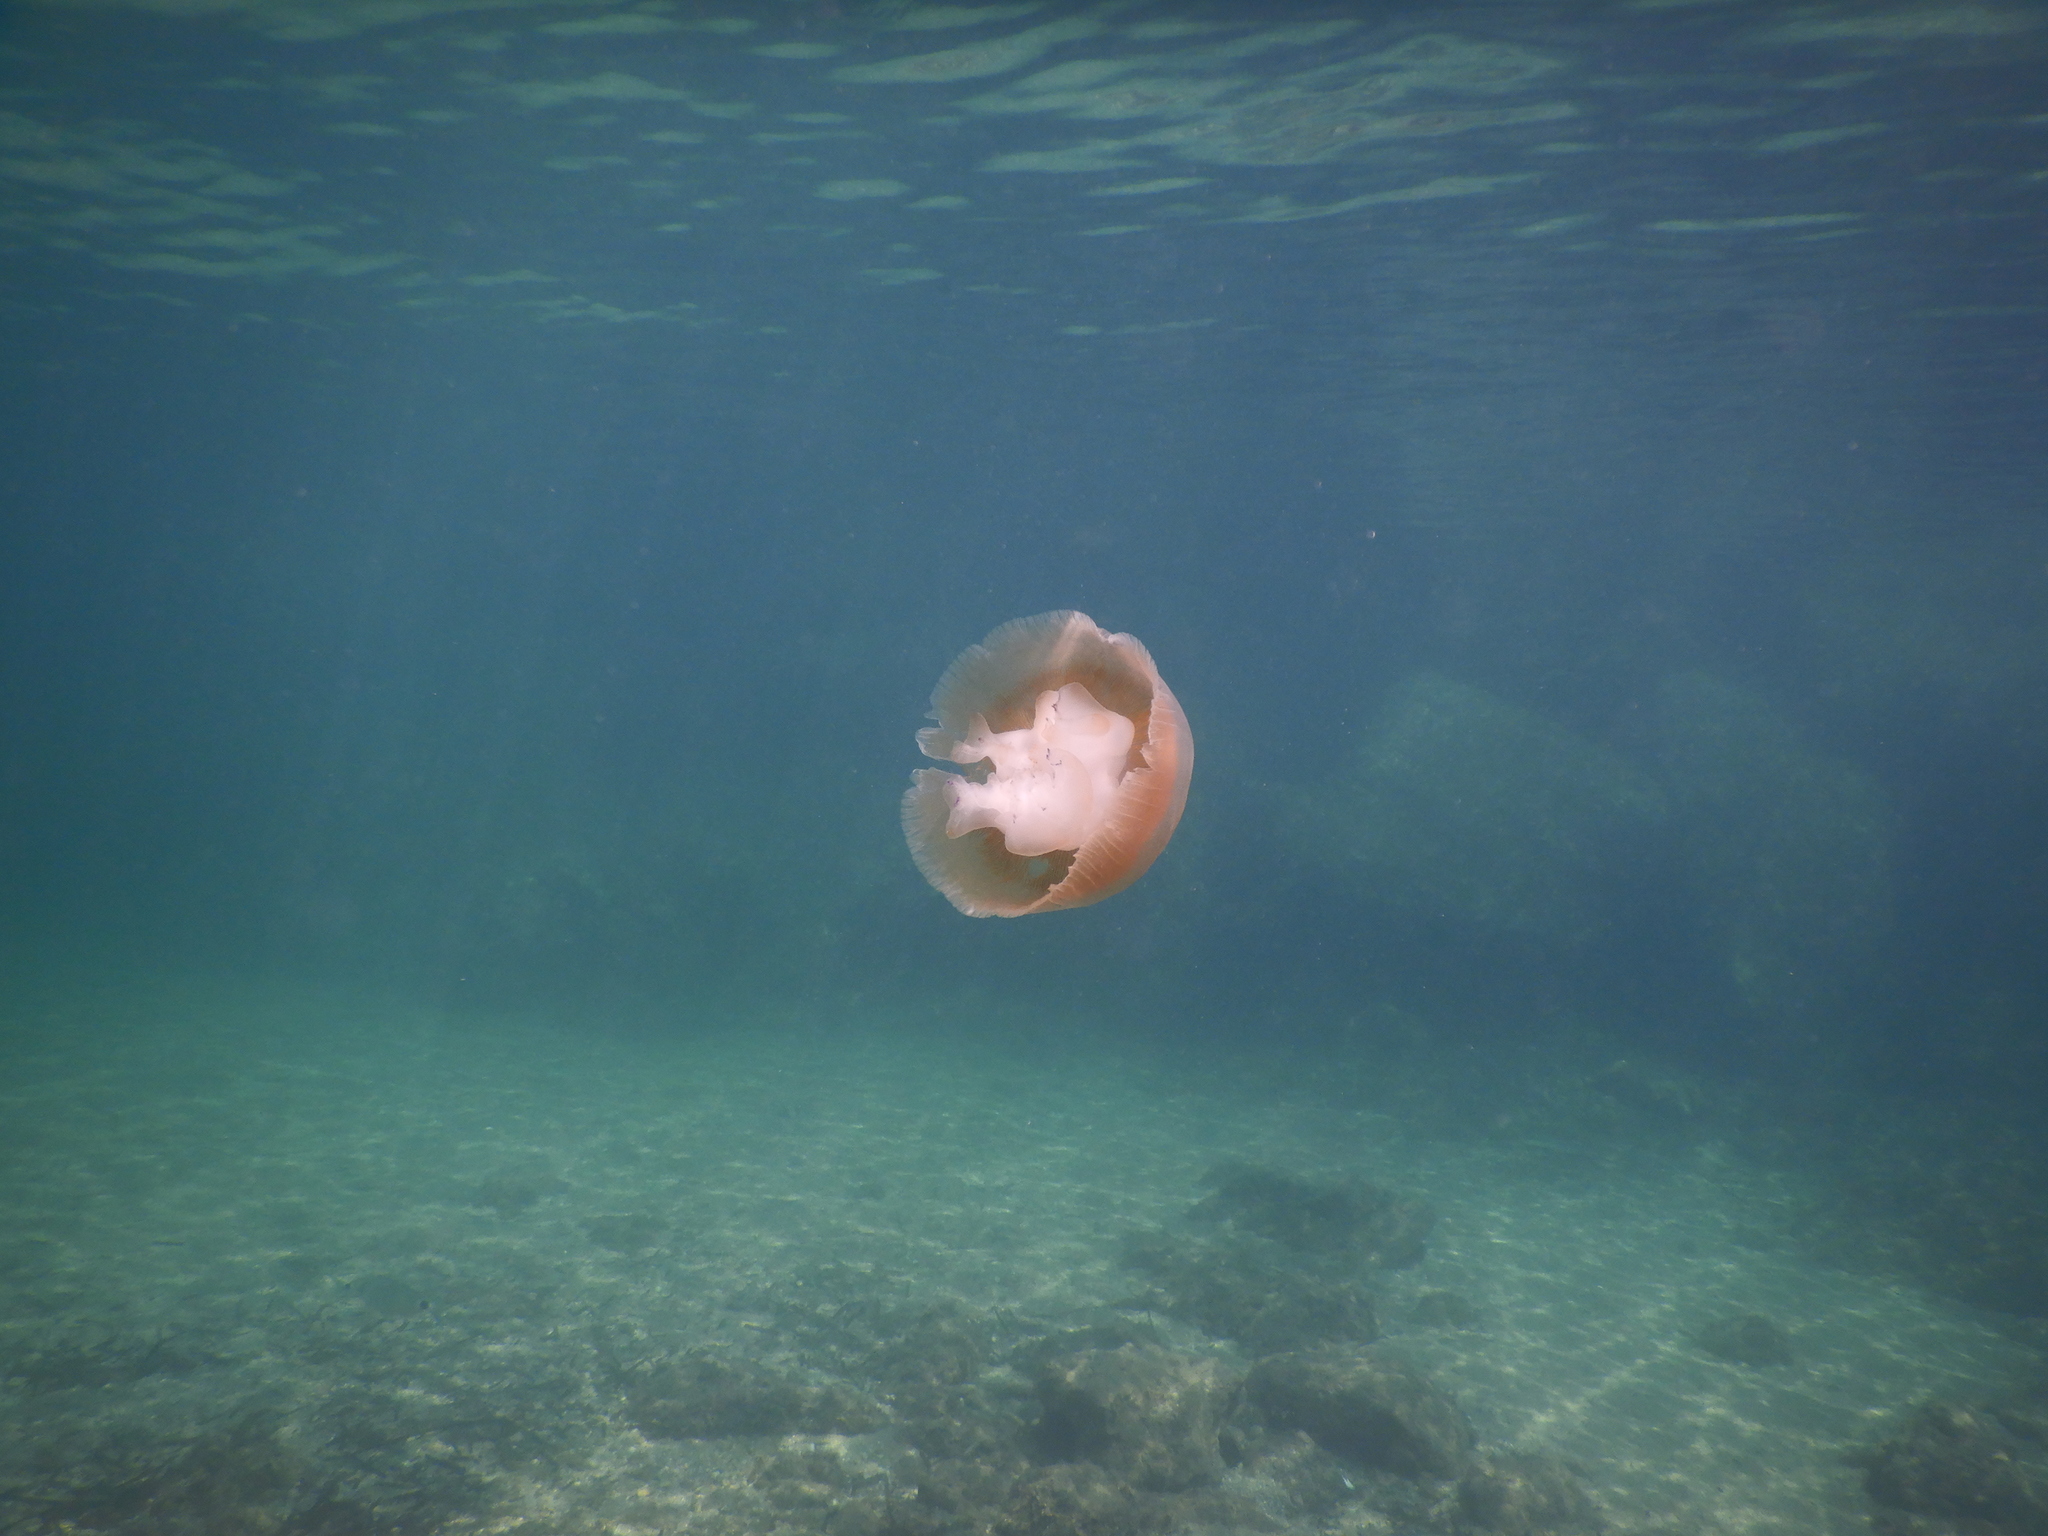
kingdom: Animalia
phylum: Cnidaria
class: Scyphozoa
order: Rhizostomeae
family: Cepheidae
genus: Cotylorhiza
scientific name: Cotylorhiza tuberculata
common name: Mediterranean jelly
